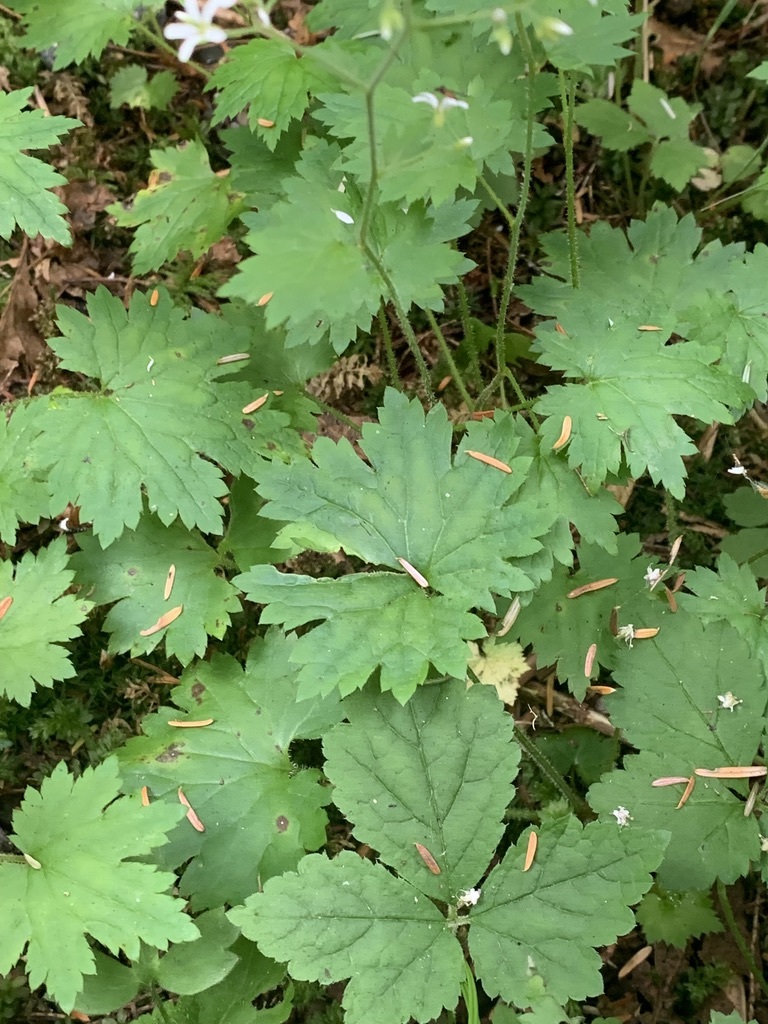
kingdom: Plantae
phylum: Tracheophyta
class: Magnoliopsida
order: Saxifragales
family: Saxifragaceae
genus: Boykinia
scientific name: Boykinia occidentalis
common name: Coast boykinia
